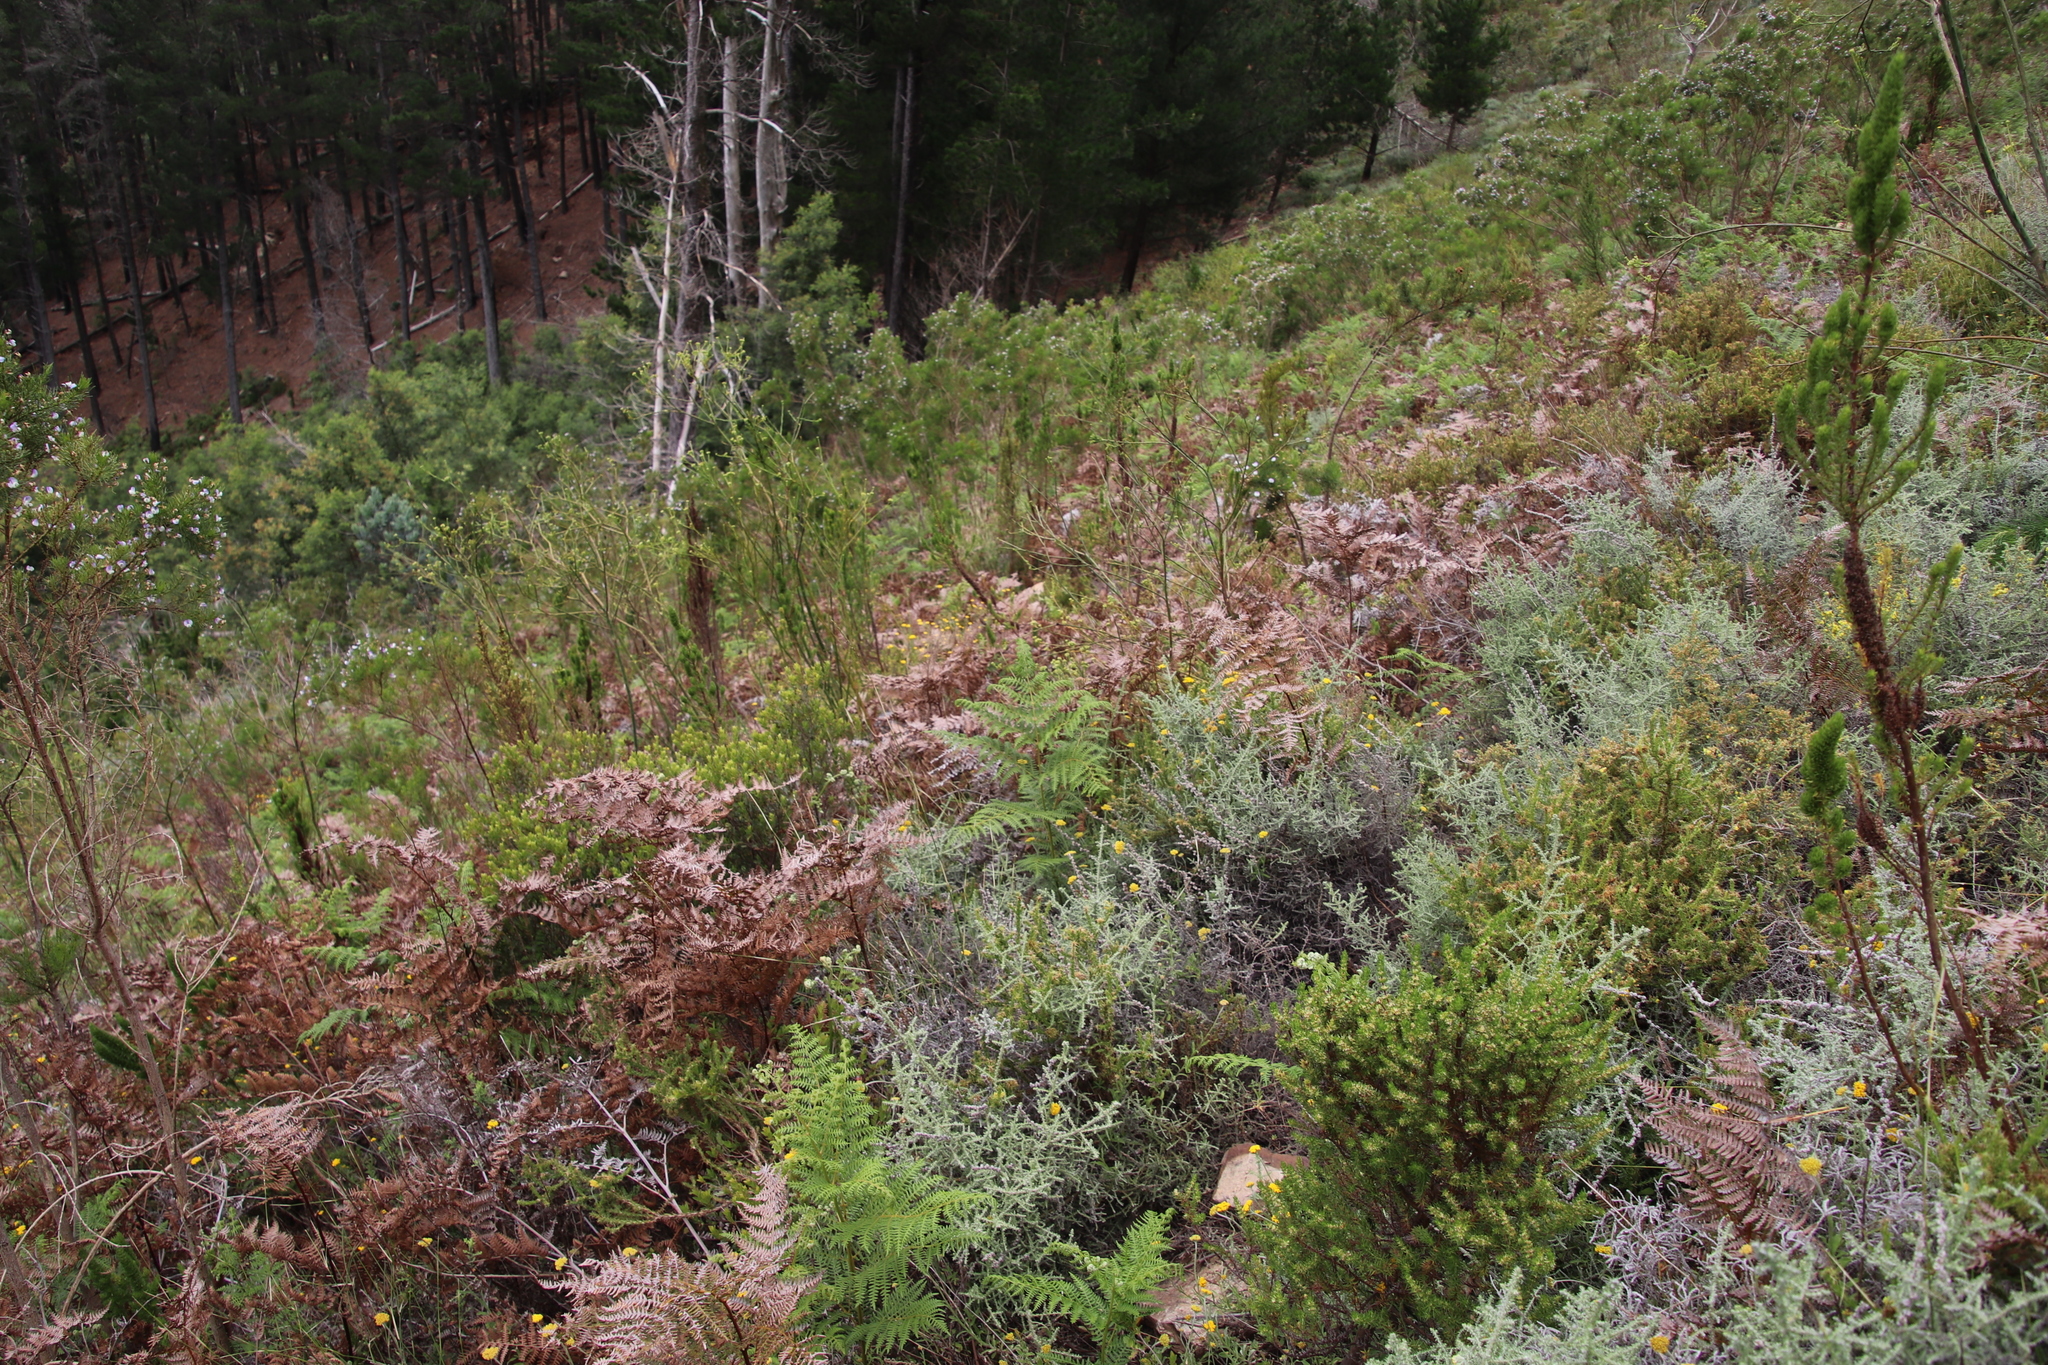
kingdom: Plantae
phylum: Tracheophyta
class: Polypodiopsida
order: Polypodiales
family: Dennstaedtiaceae
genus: Pteridium
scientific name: Pteridium aquilinum
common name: Bracken
